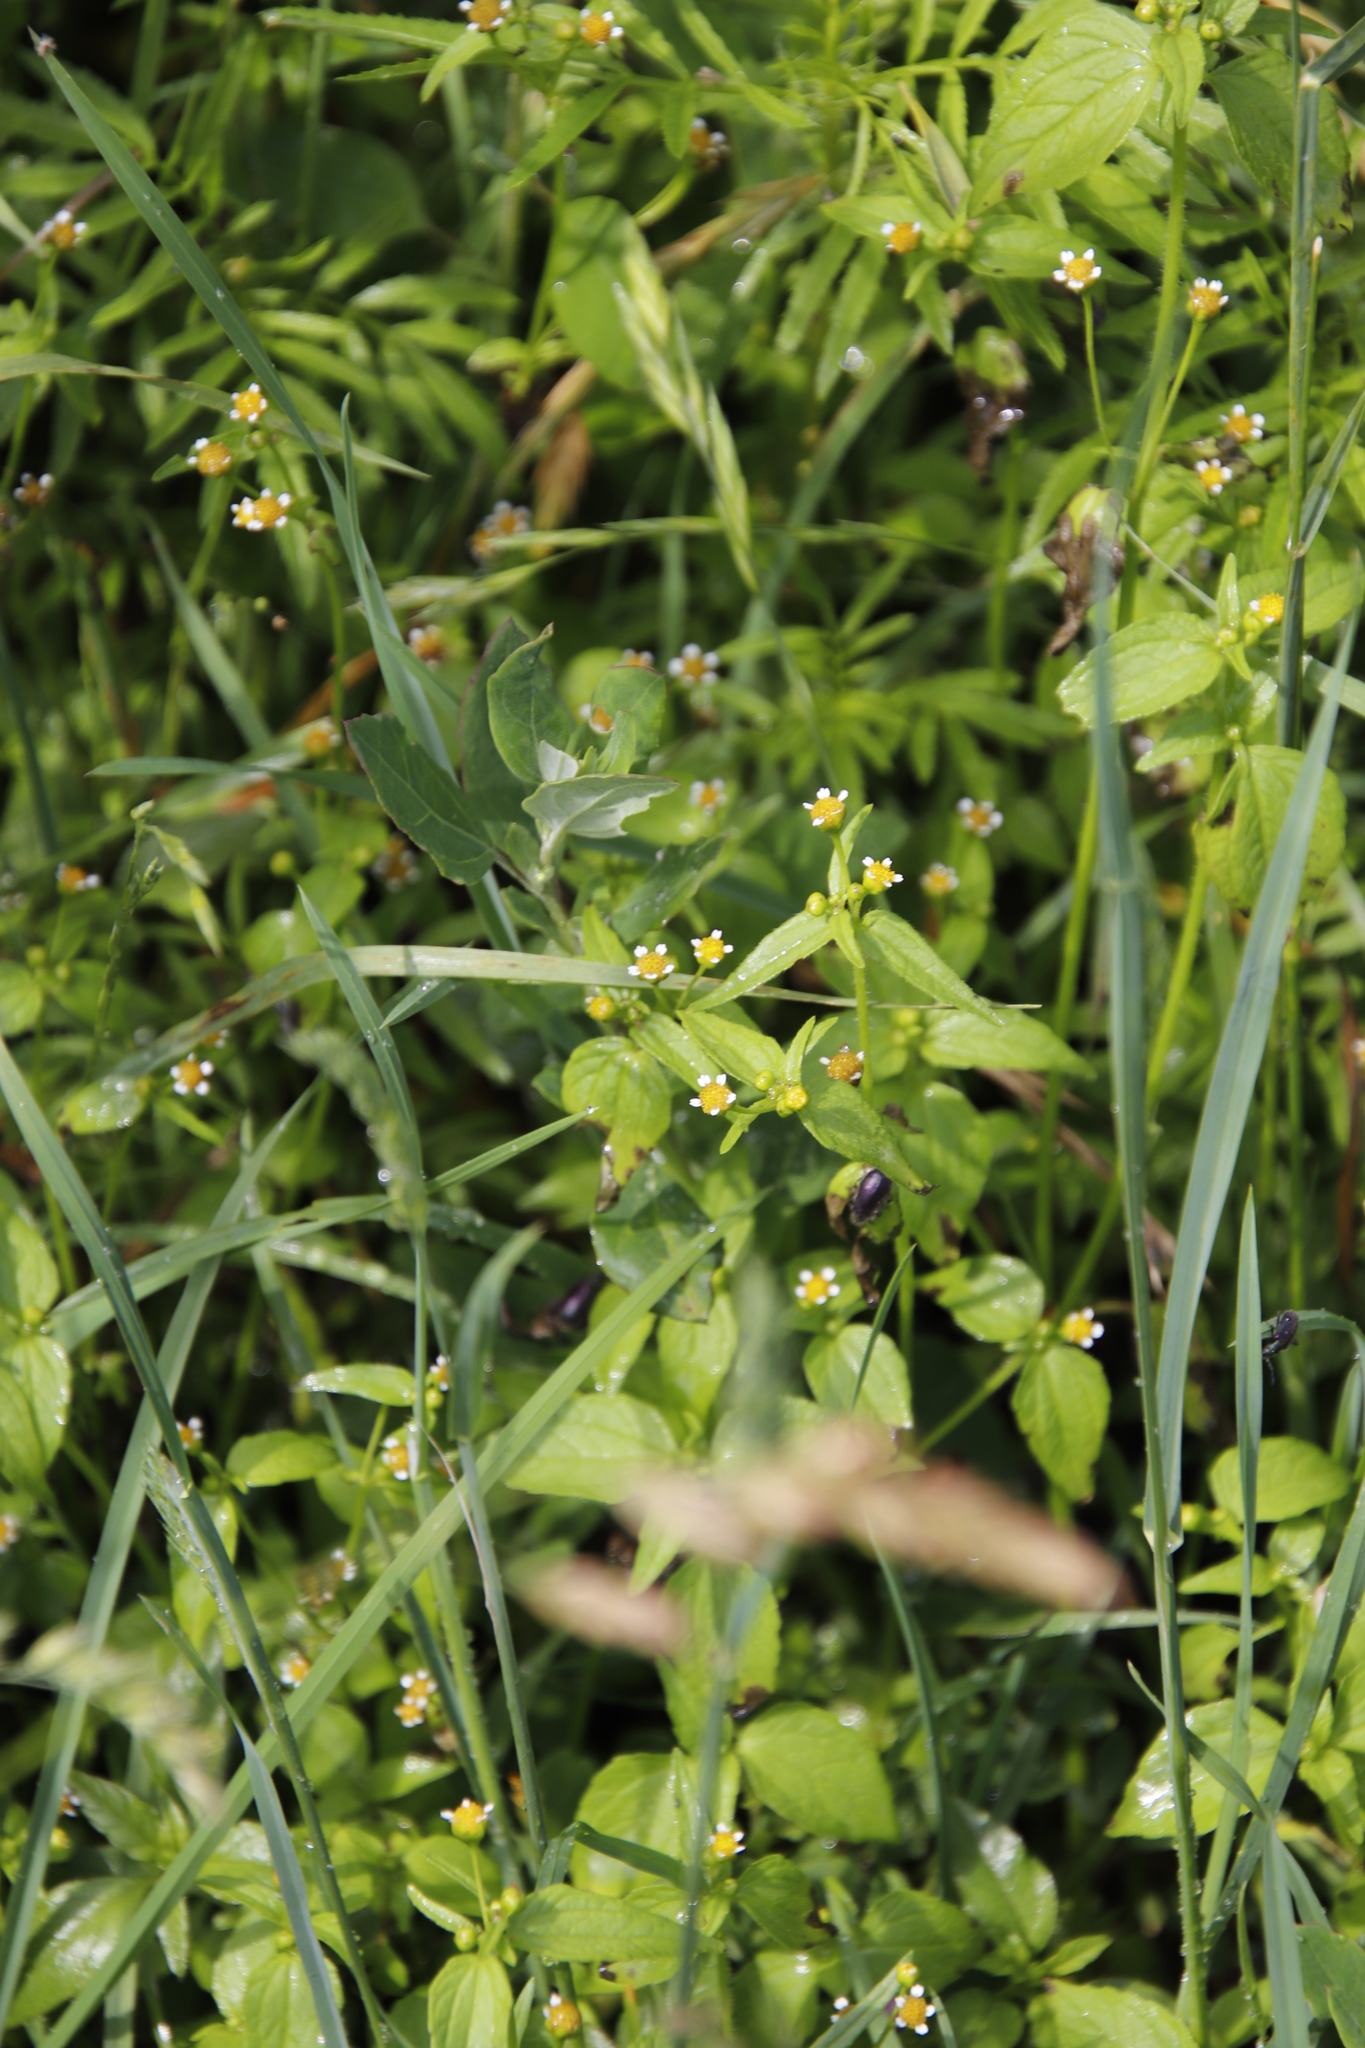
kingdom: Plantae
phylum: Tracheophyta
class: Magnoliopsida
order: Asterales
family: Asteraceae
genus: Galinsoga
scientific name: Galinsoga parviflora
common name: Gallant soldier
